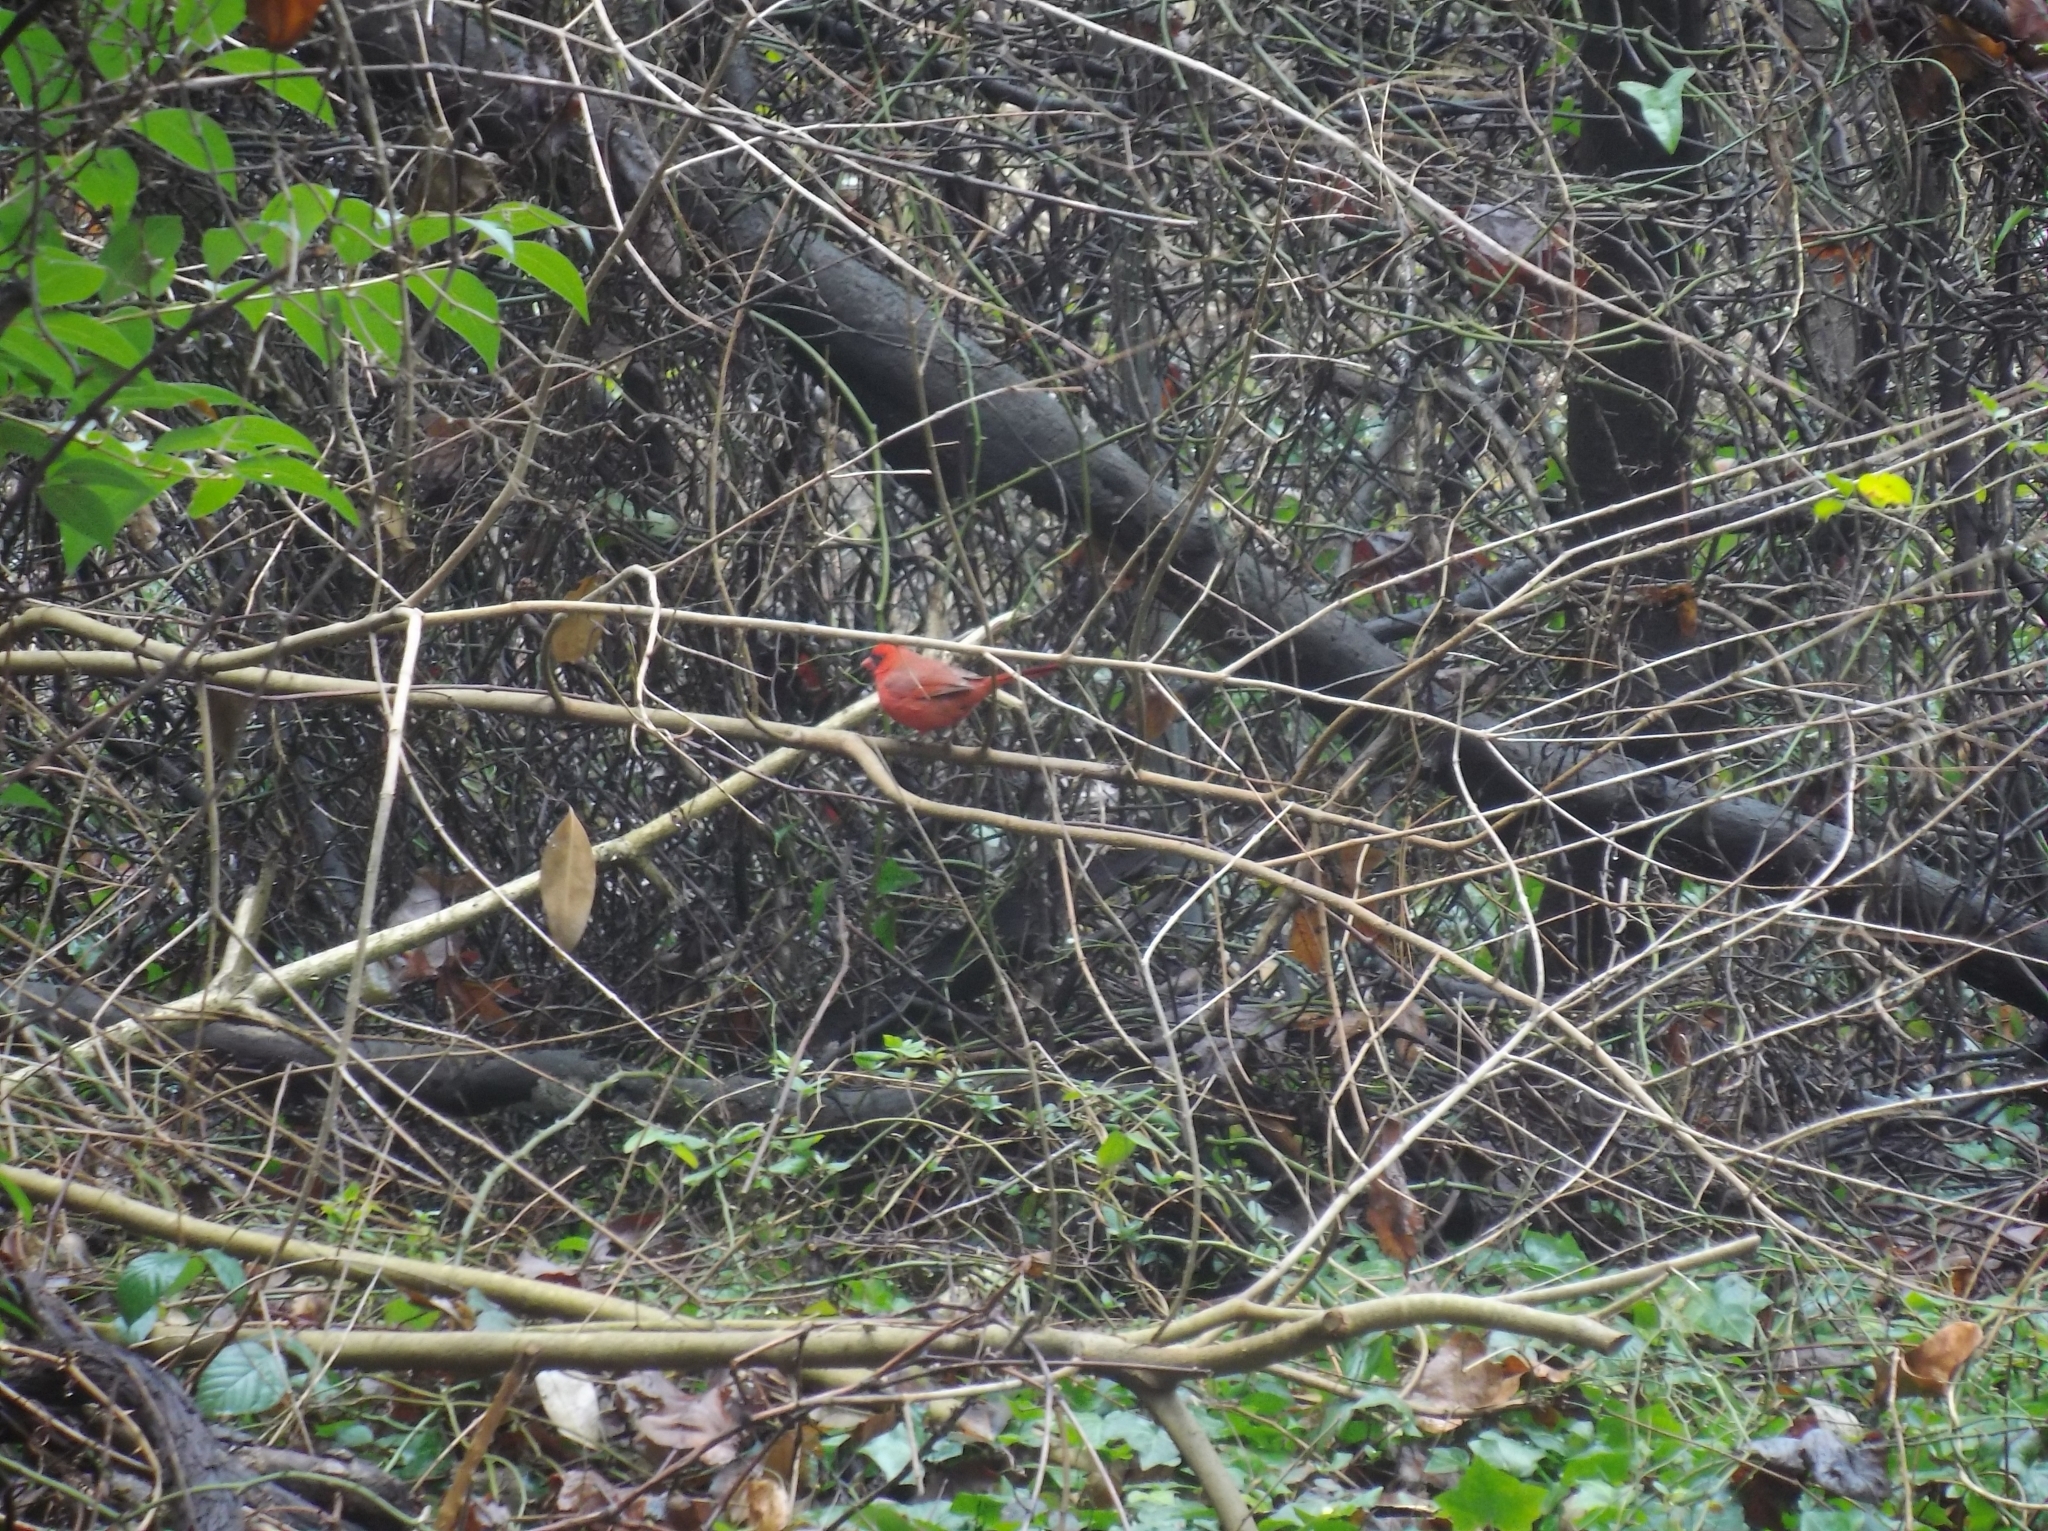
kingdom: Animalia
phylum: Chordata
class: Aves
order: Passeriformes
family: Cardinalidae
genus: Cardinalis
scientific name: Cardinalis cardinalis
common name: Northern cardinal
